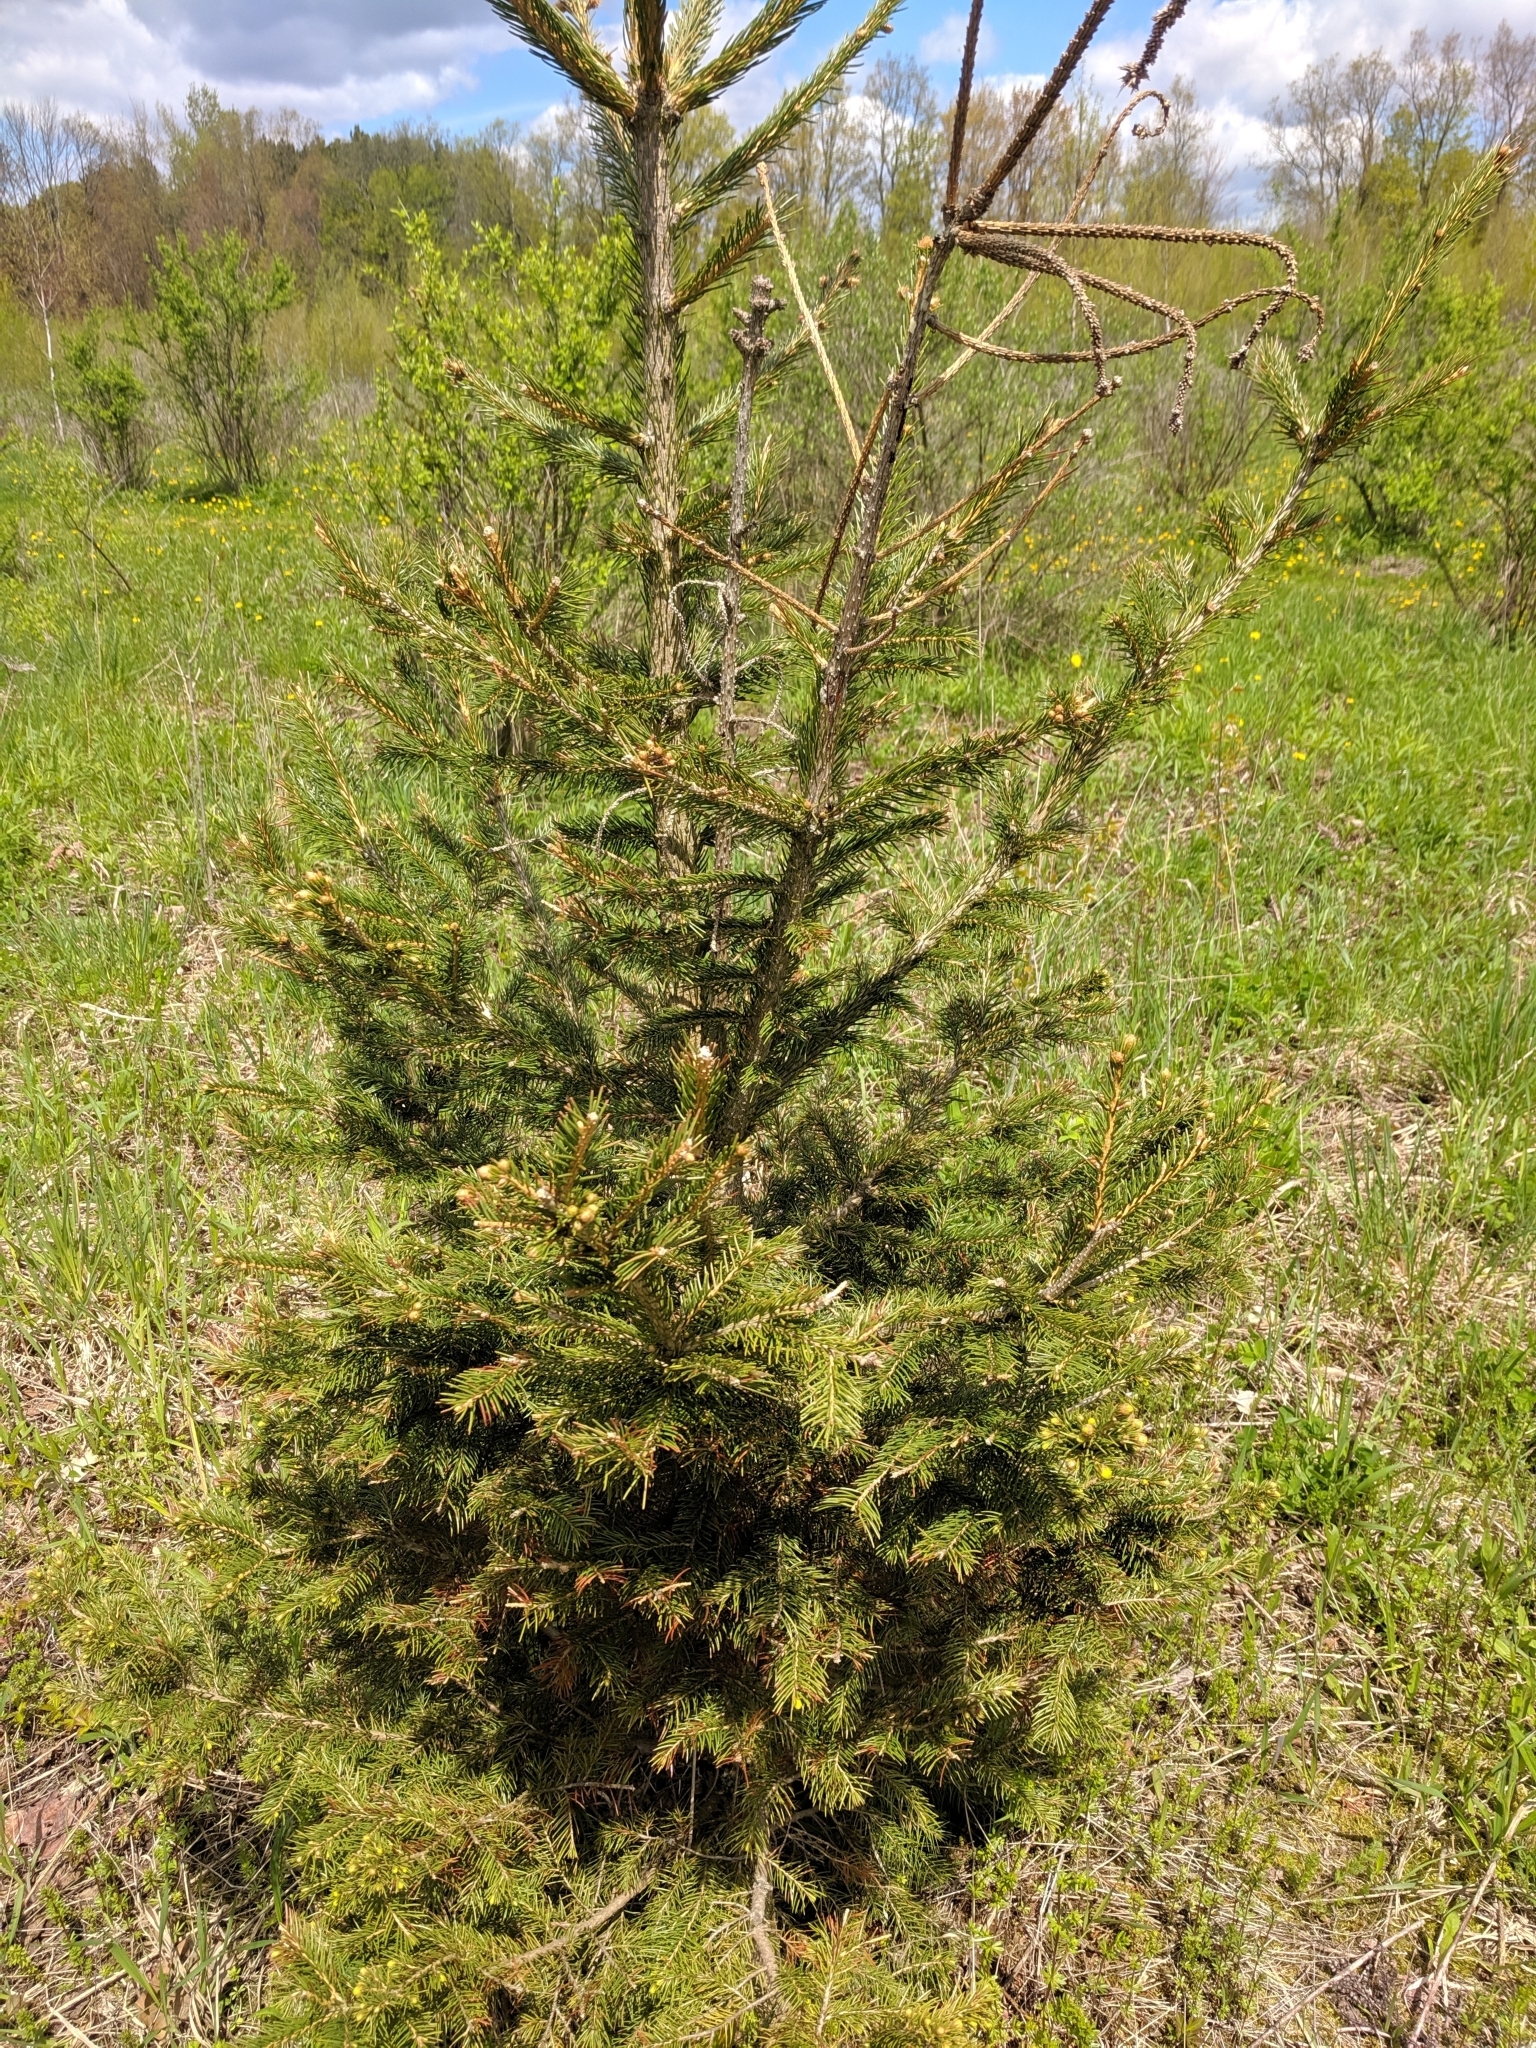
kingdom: Plantae
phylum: Tracheophyta
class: Pinopsida
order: Pinales
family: Pinaceae
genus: Picea
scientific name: Picea abies
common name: Norway spruce
